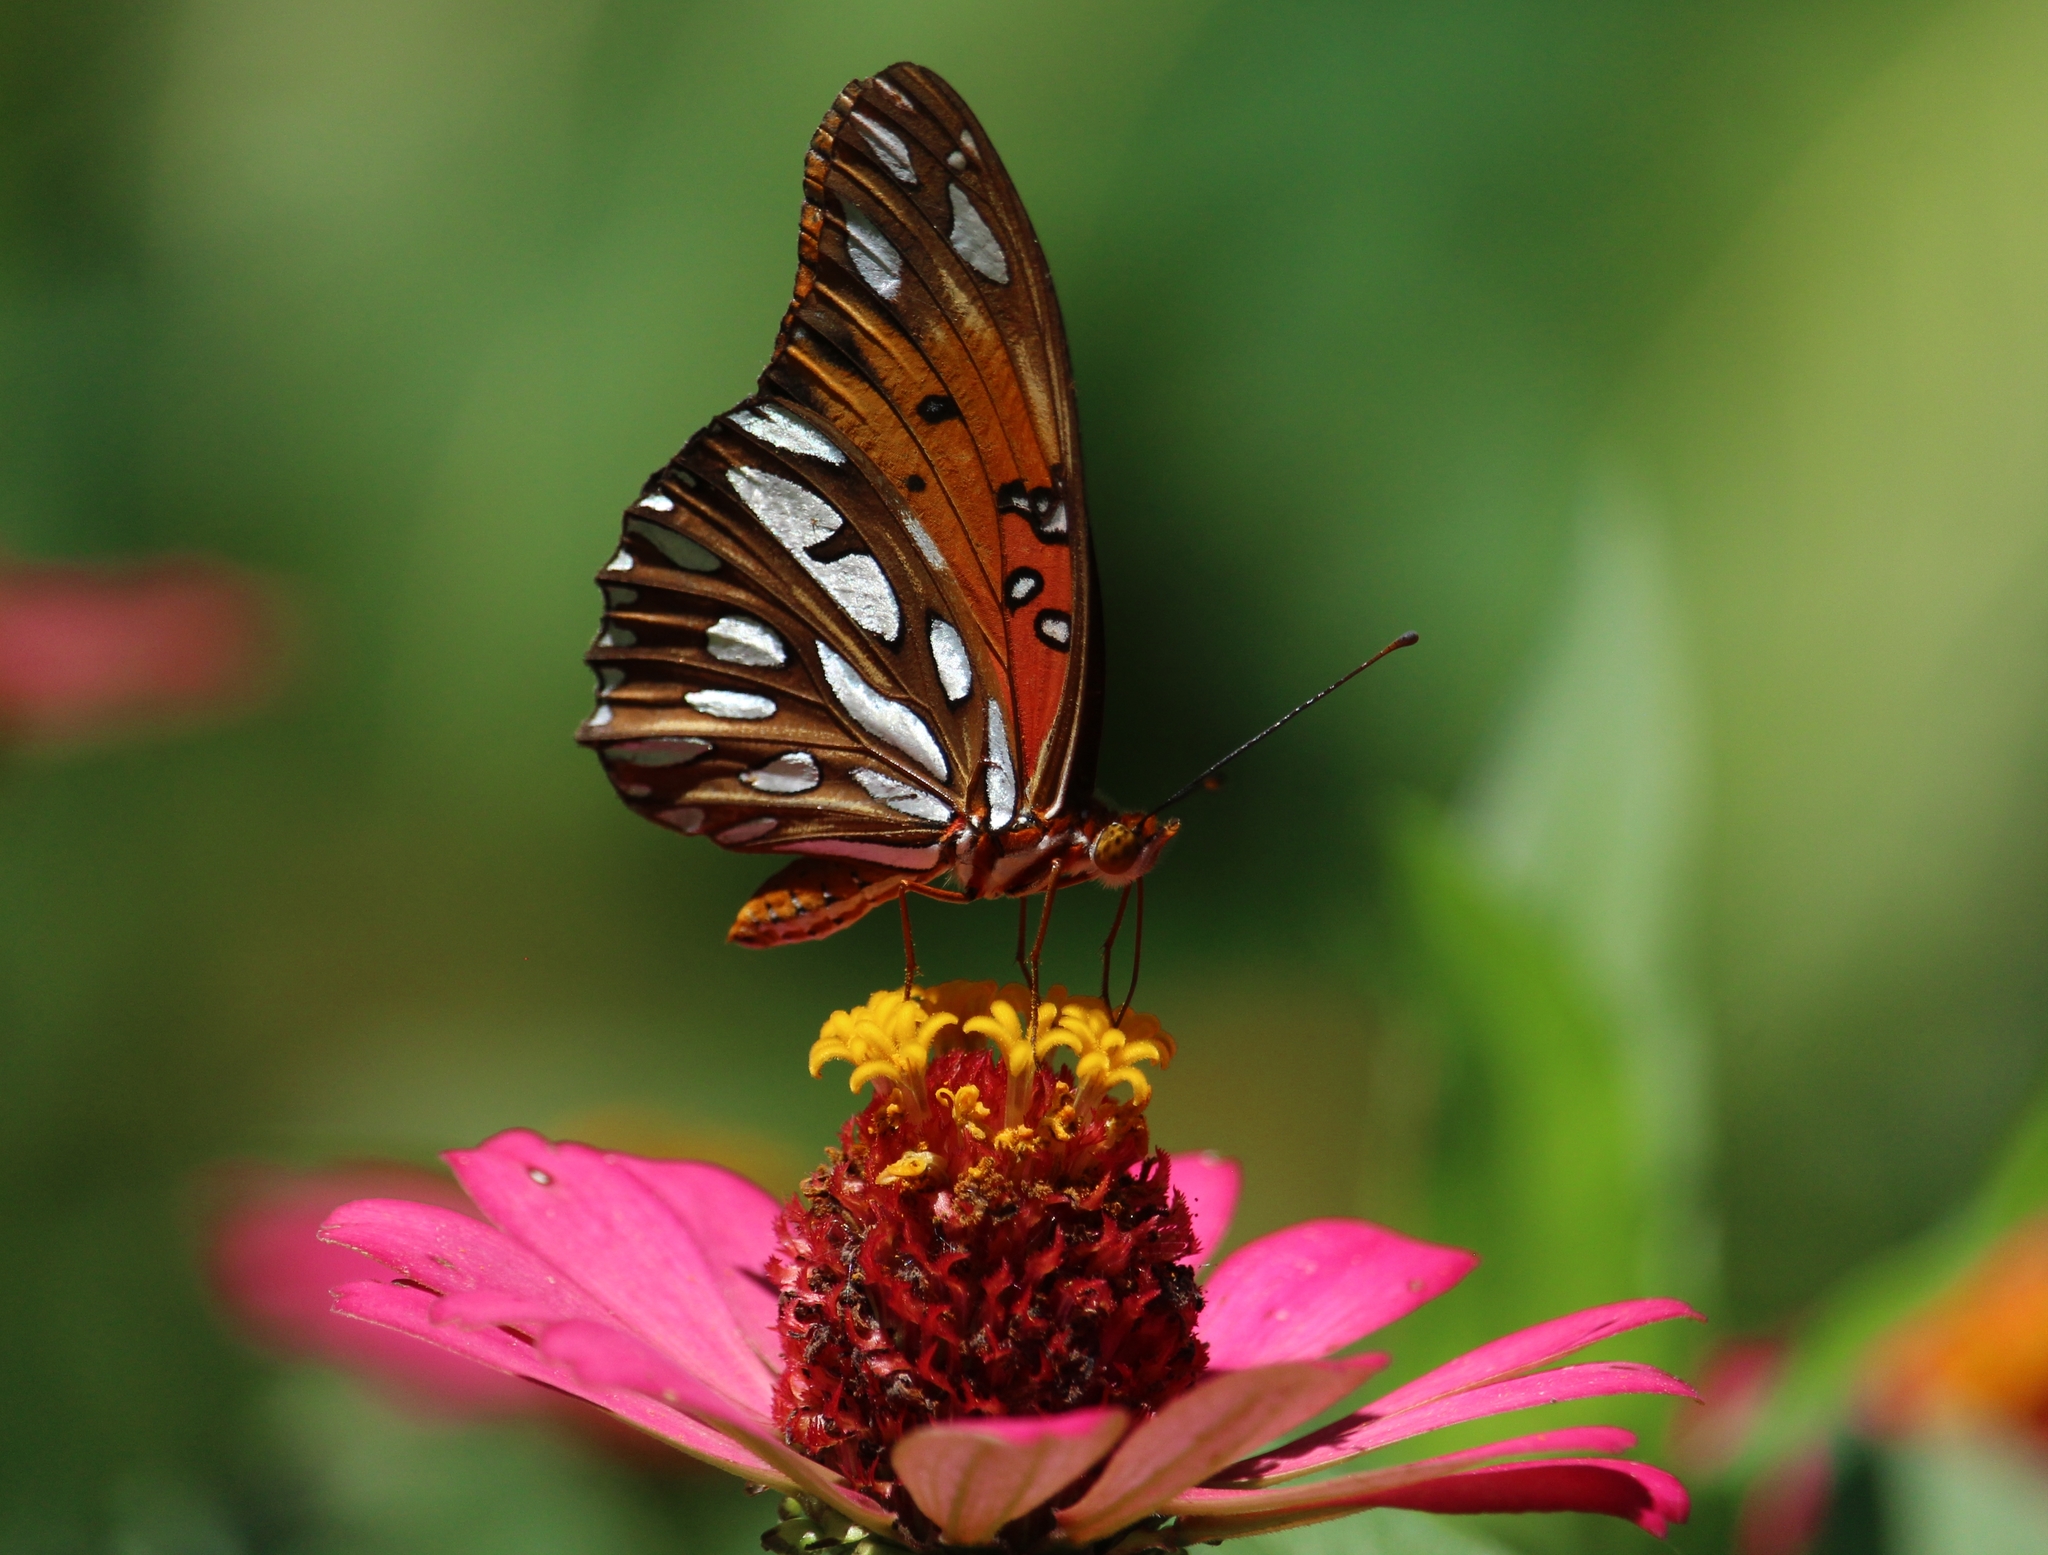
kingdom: Animalia
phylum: Arthropoda
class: Insecta
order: Lepidoptera
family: Nymphalidae
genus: Dione
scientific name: Dione vanillae
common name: Gulf fritillary
